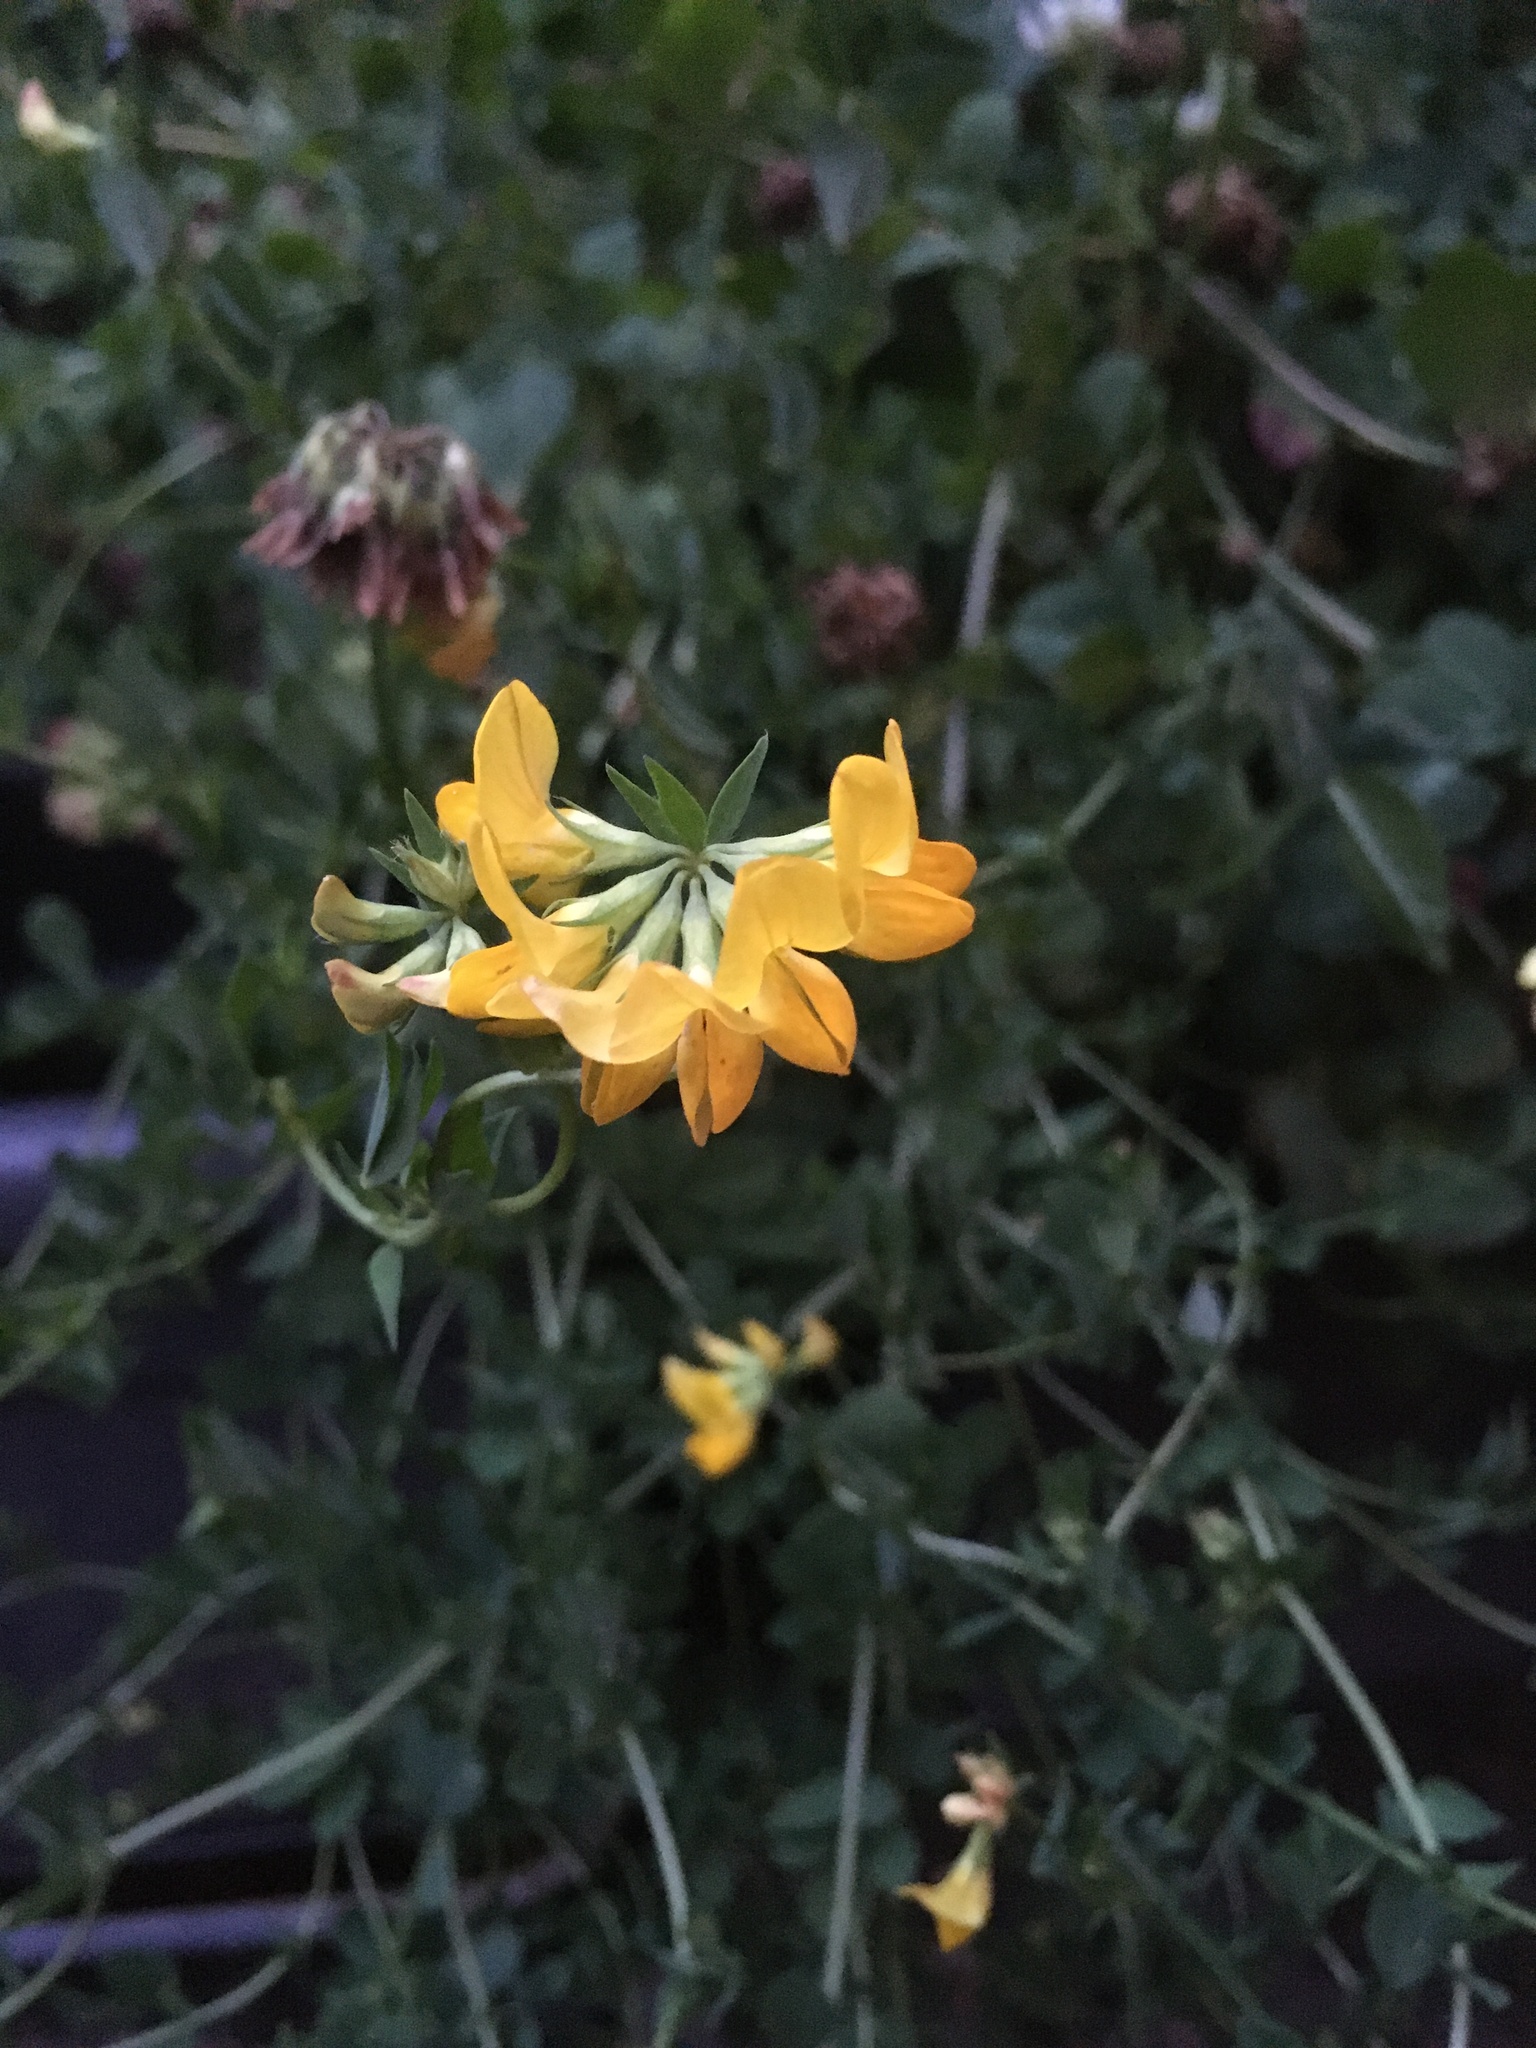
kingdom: Plantae
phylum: Tracheophyta
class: Magnoliopsida
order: Fabales
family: Fabaceae
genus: Lotus
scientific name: Lotus corniculatus
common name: Common bird's-foot-trefoil
